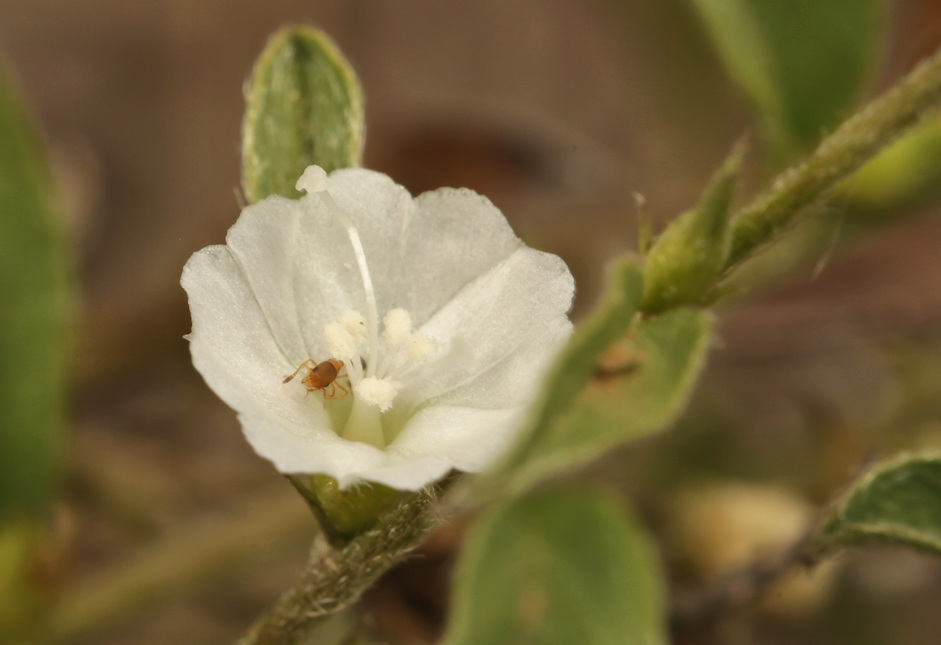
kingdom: Plantae
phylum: Tracheophyta
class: Magnoliopsida
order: Solanales
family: Convolvulaceae
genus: Seddera
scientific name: Seddera suffruticosa
